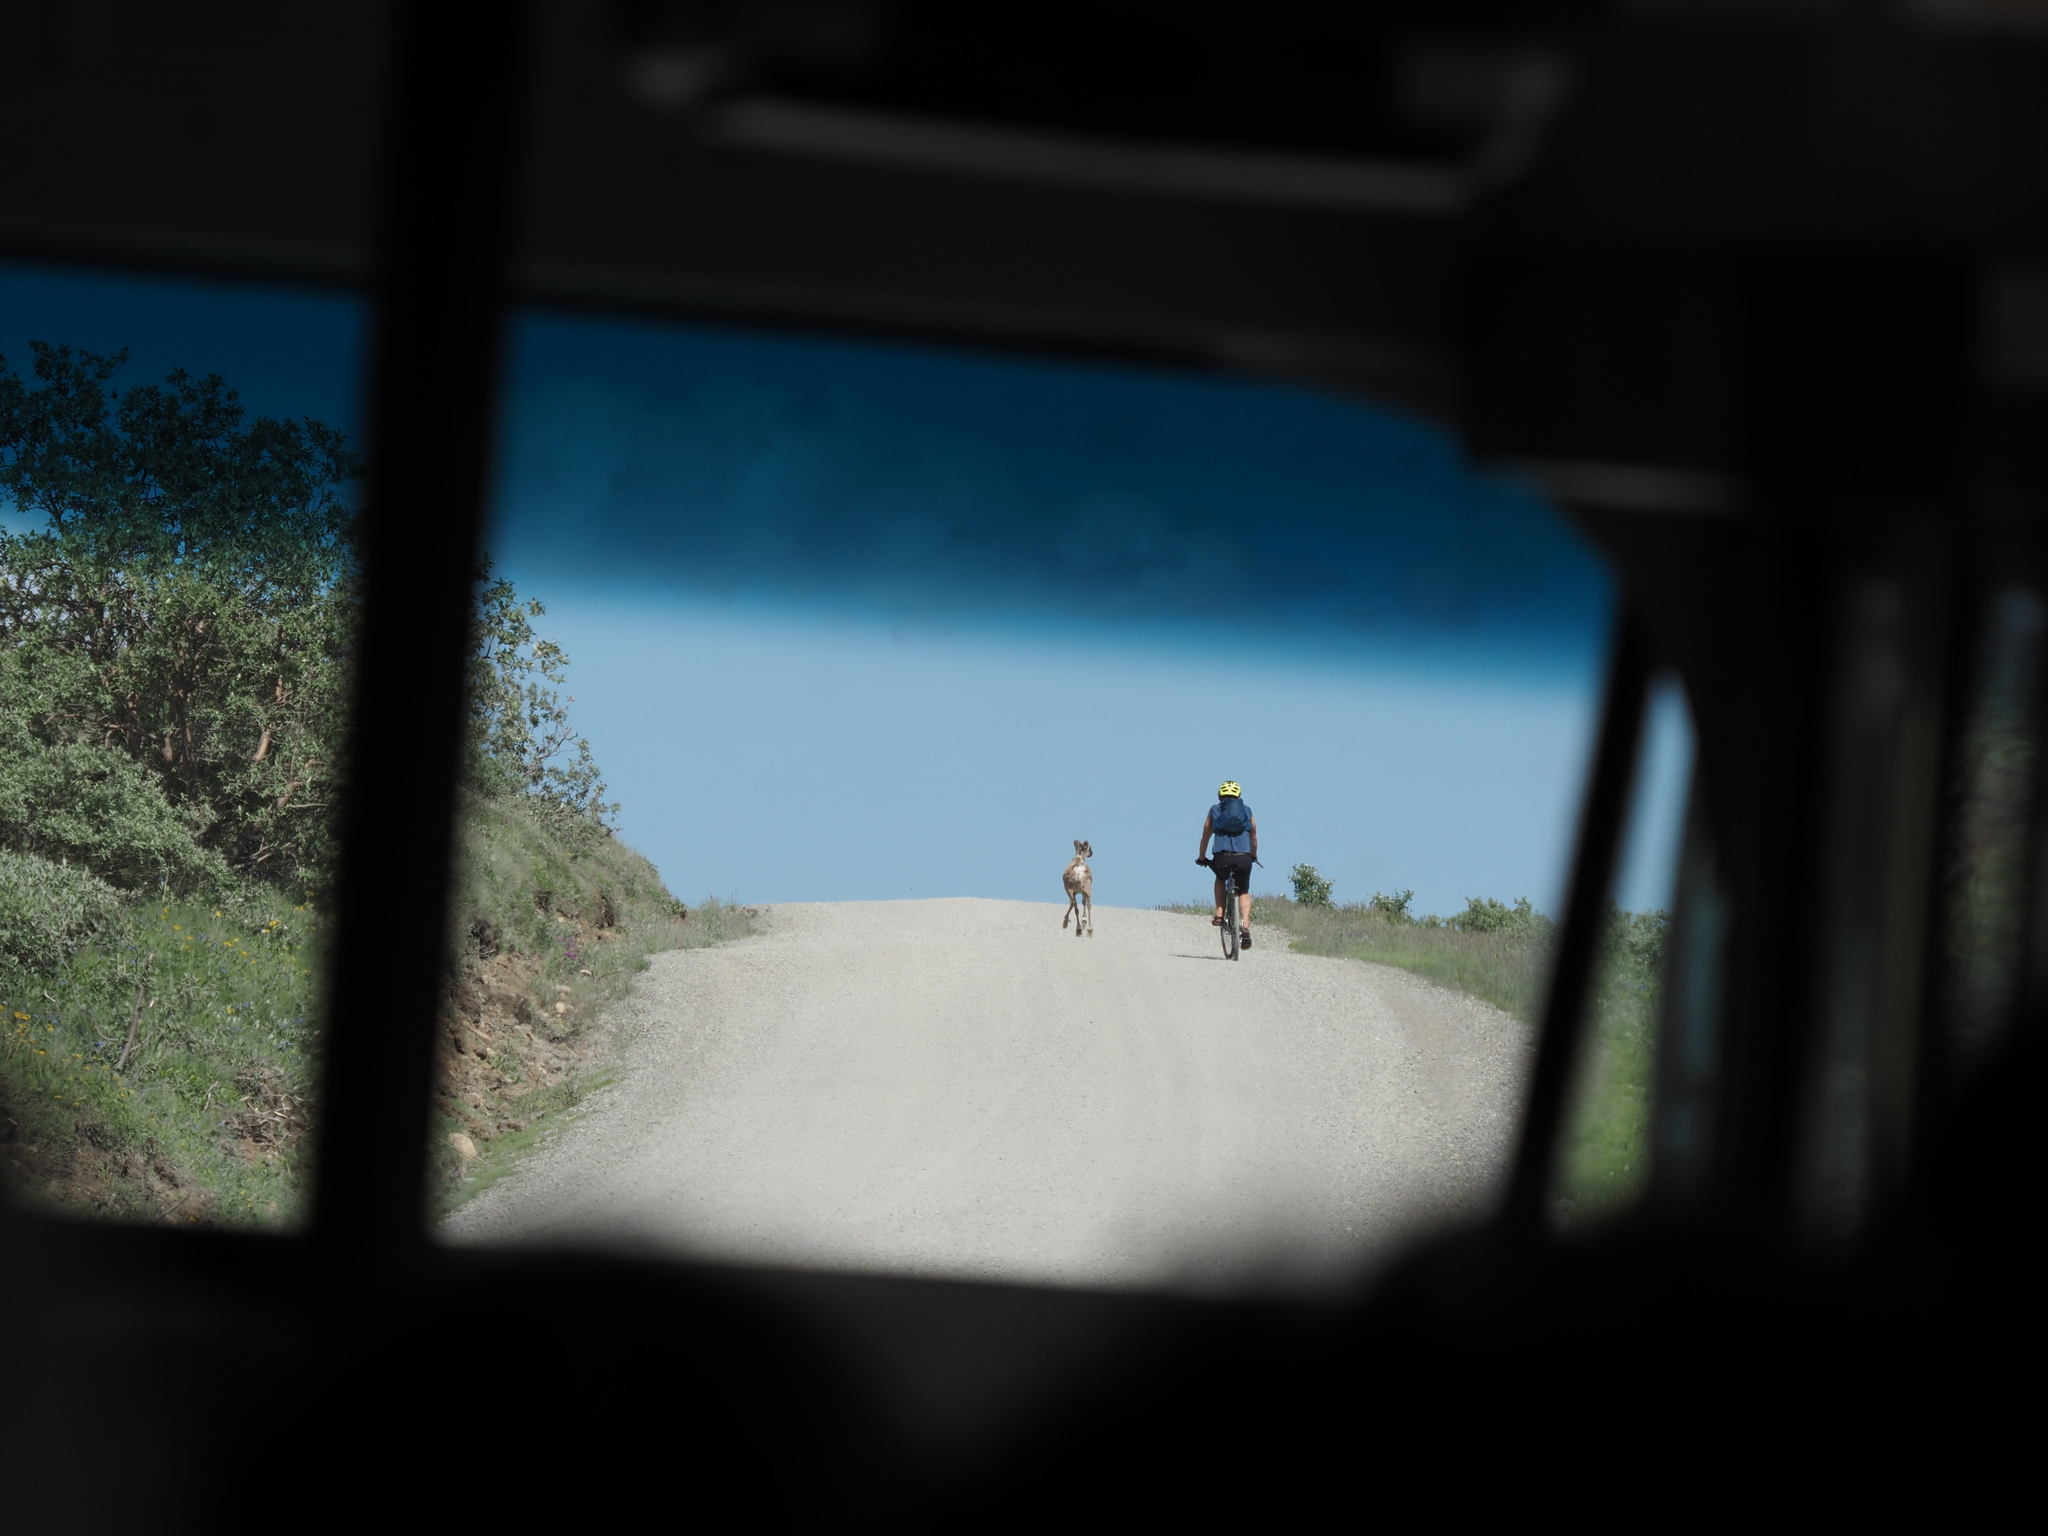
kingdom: Animalia
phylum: Chordata
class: Mammalia
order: Artiodactyla
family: Cervidae
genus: Rangifer
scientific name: Rangifer tarandus
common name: Reindeer
